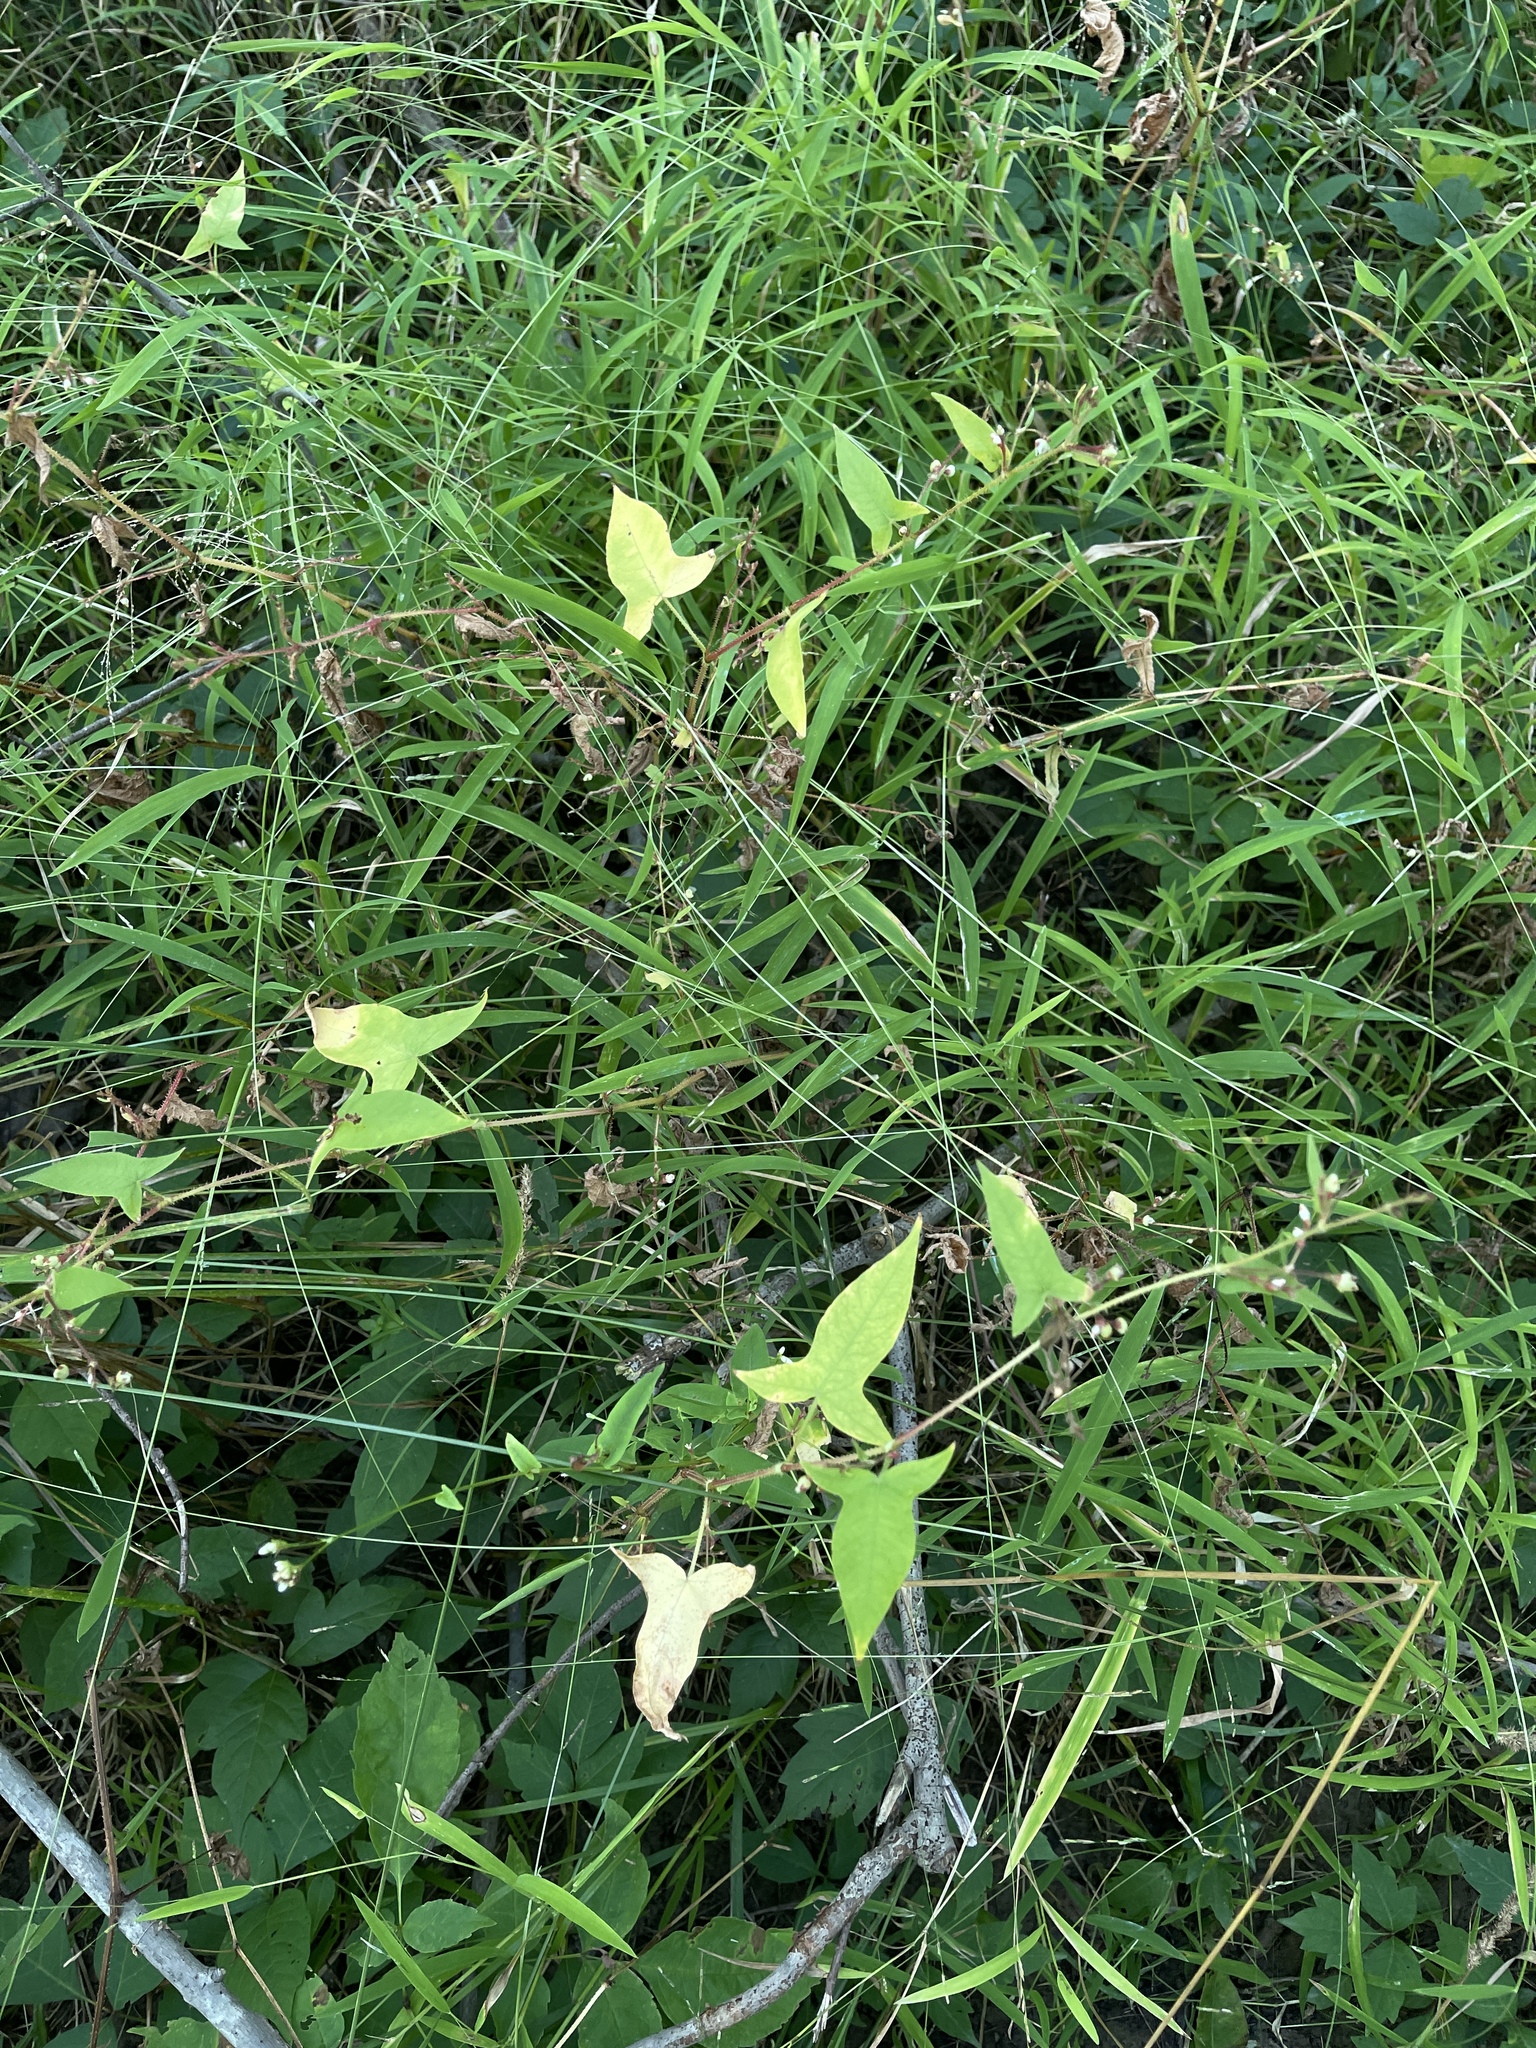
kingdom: Plantae
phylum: Tracheophyta
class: Magnoliopsida
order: Caryophyllales
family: Polygonaceae
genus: Persicaria
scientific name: Persicaria arifolia
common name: Halberd-leaved tear-thumb
